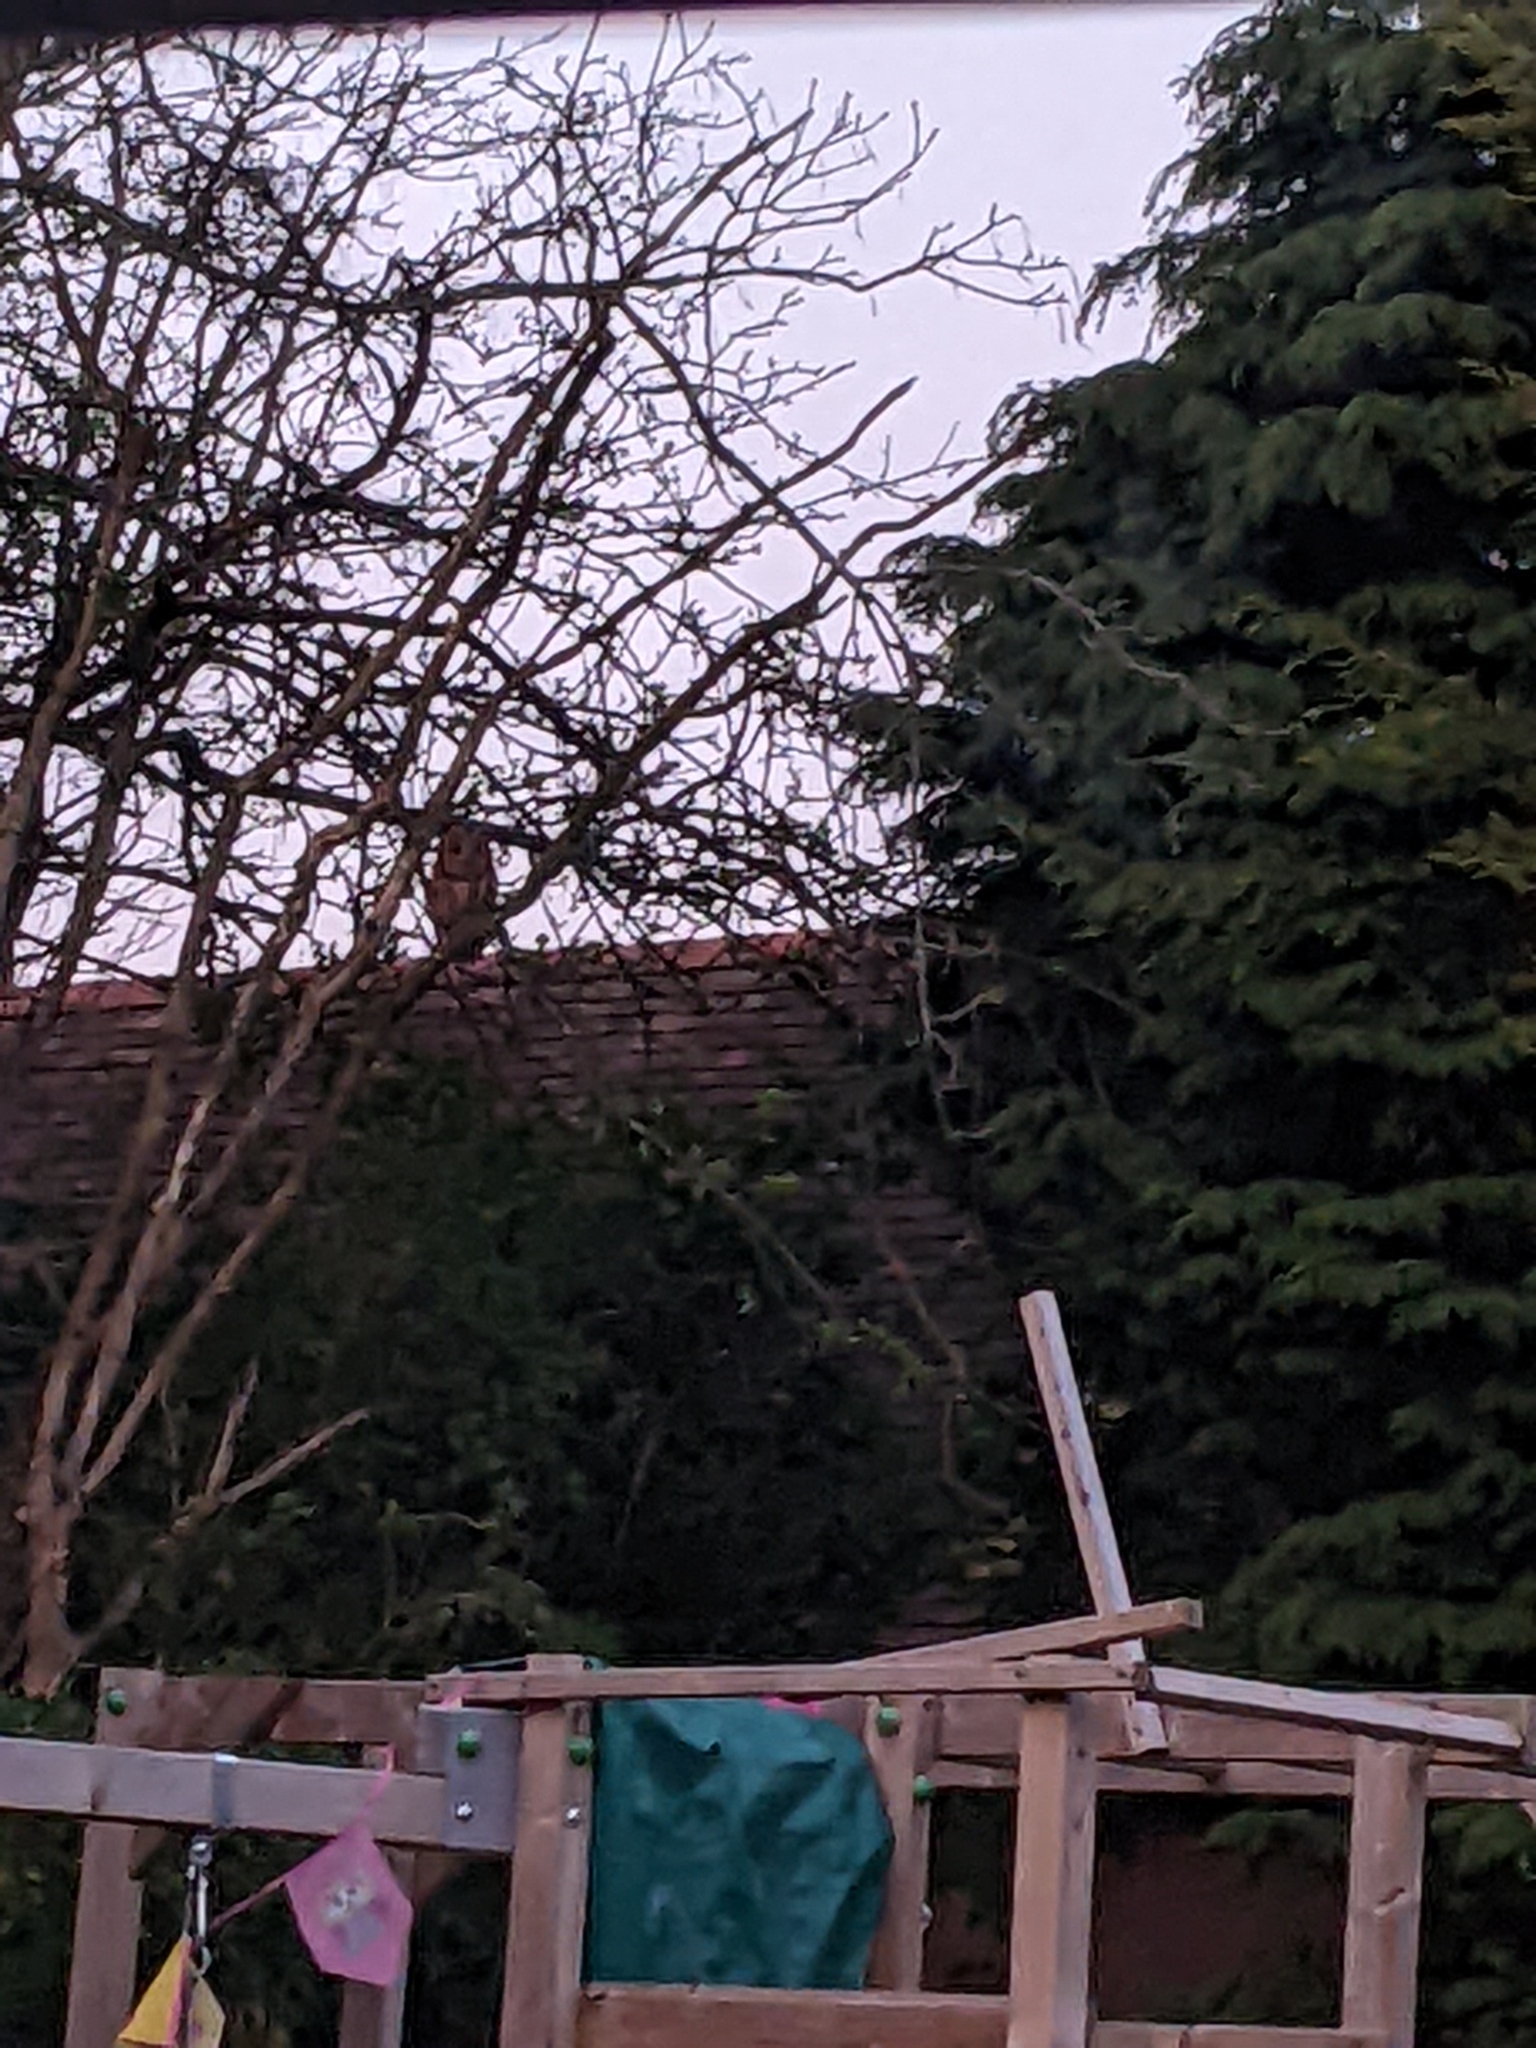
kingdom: Animalia
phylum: Chordata
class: Aves
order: Strigiformes
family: Strigidae
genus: Strix
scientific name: Strix aluco
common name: Tawny owl
